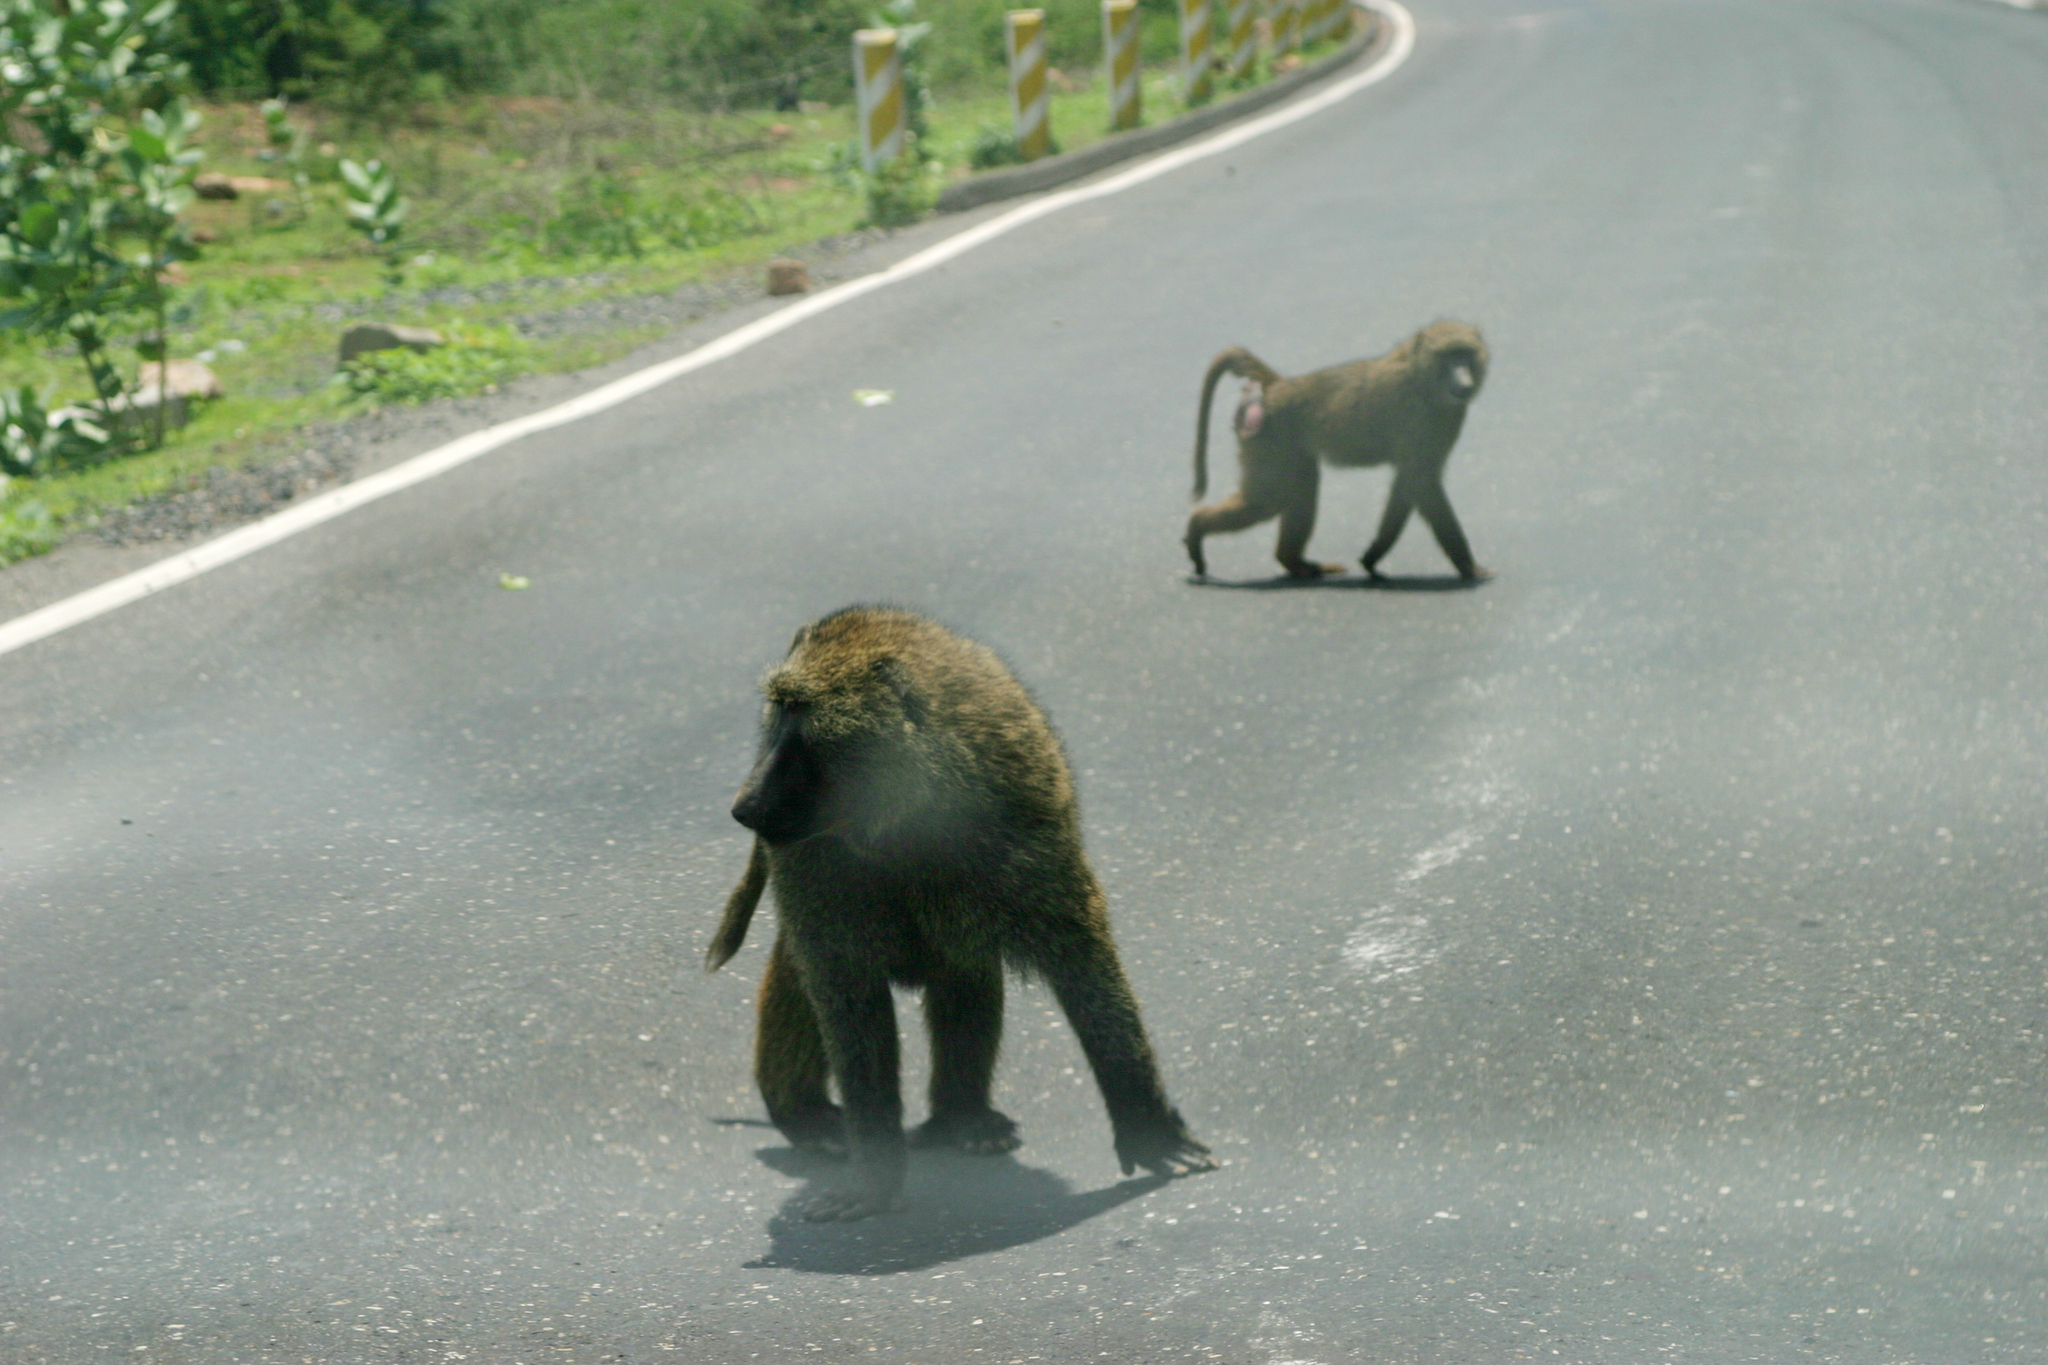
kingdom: Animalia
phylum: Chordata
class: Mammalia
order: Primates
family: Cercopithecidae
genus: Papio
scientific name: Papio anubis
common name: Olive baboon
